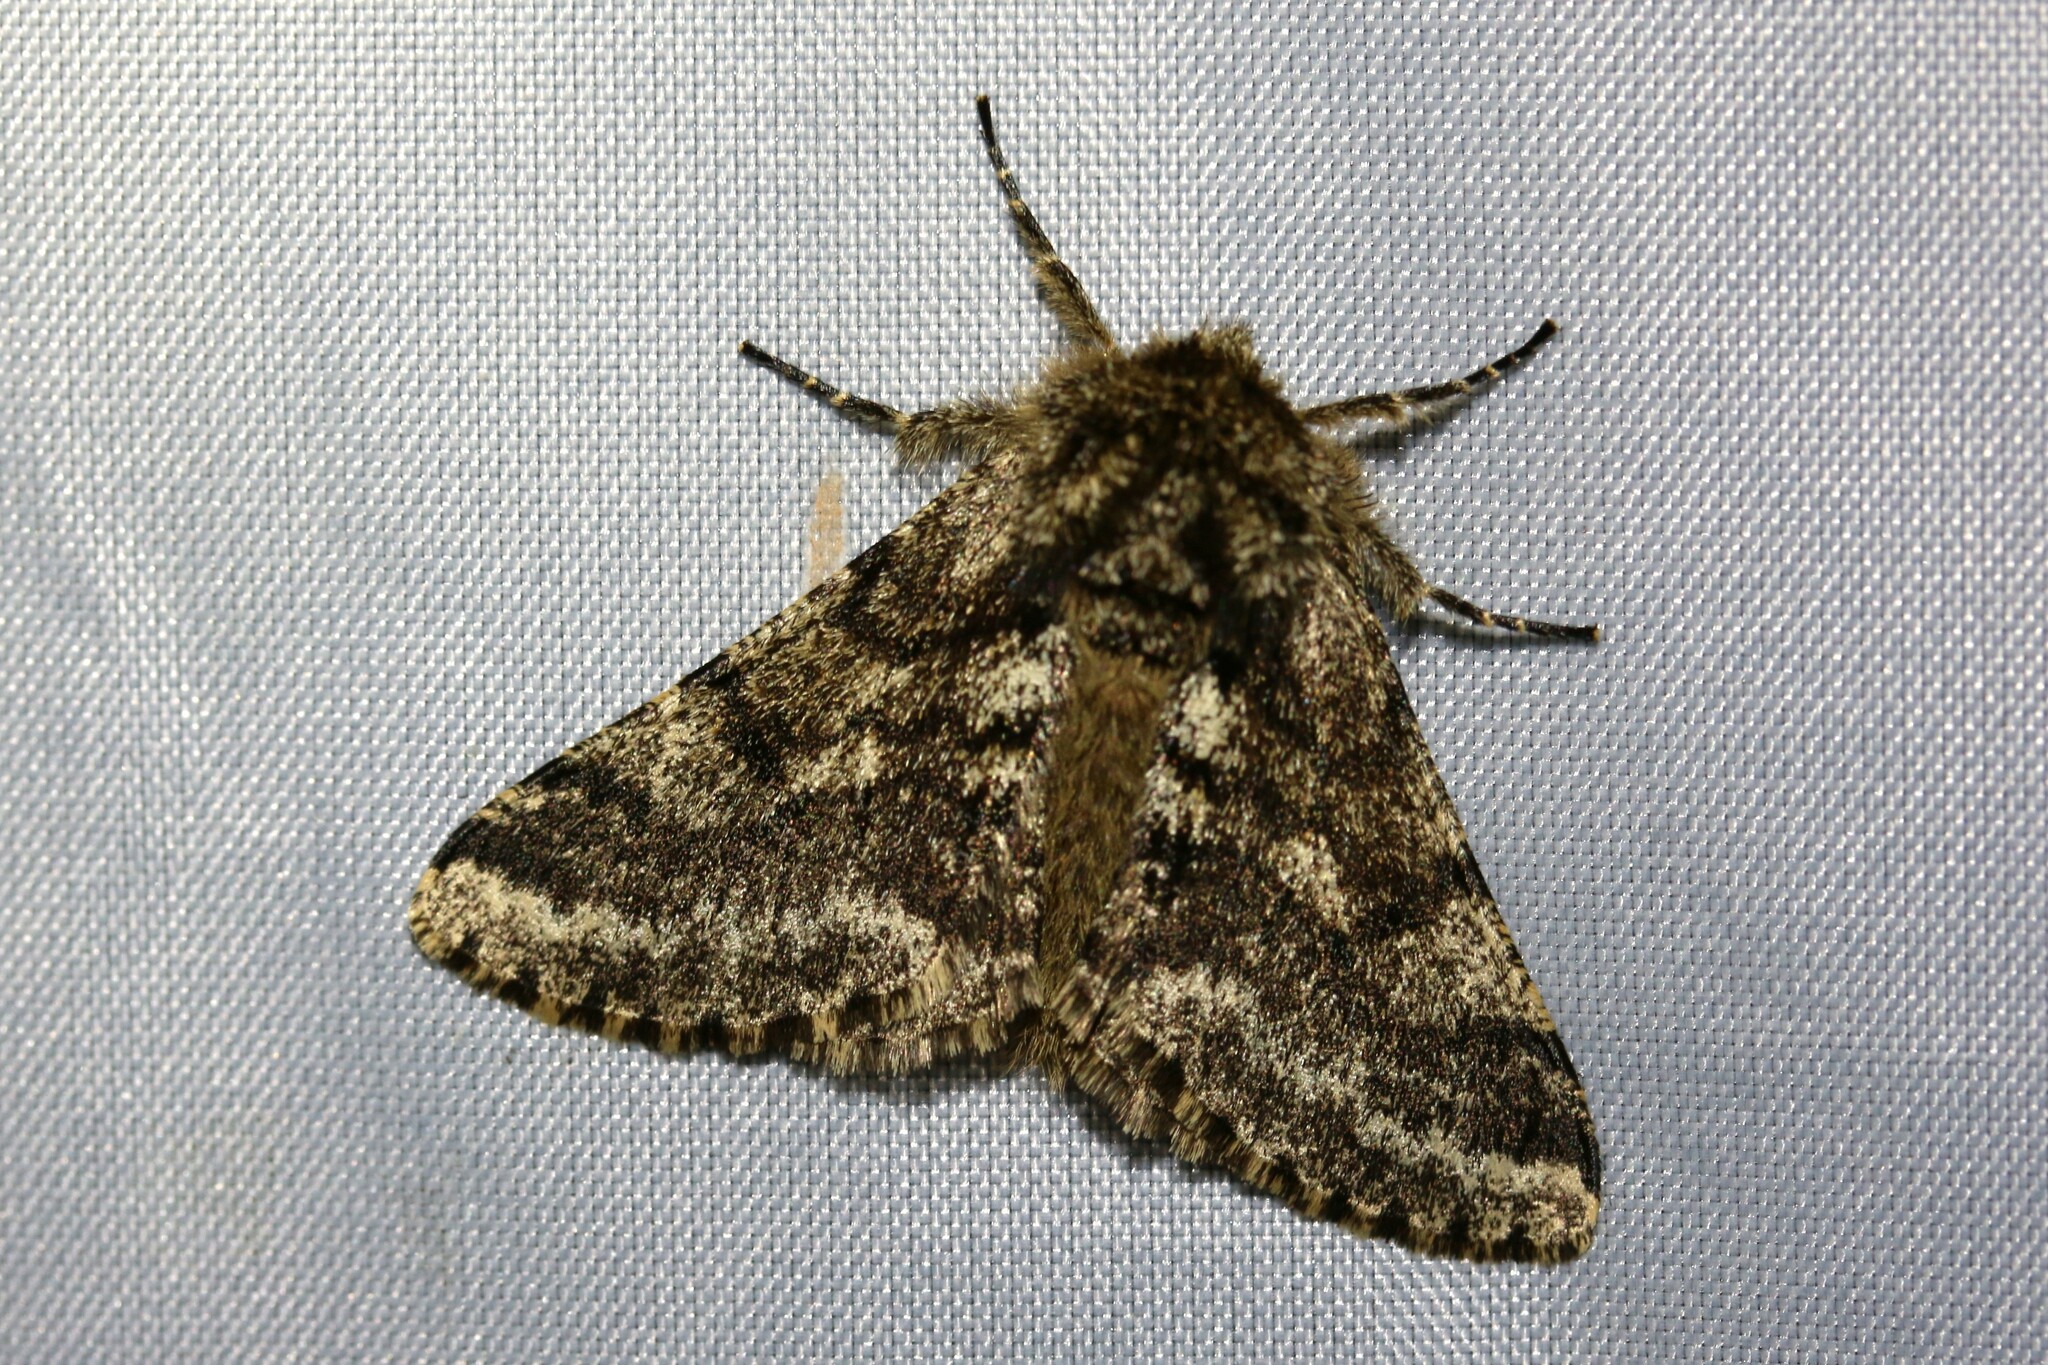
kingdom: Animalia
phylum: Arthropoda
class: Insecta
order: Lepidoptera
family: Geometridae
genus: Lycia
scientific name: Lycia hirtaria
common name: Brindled beauty
